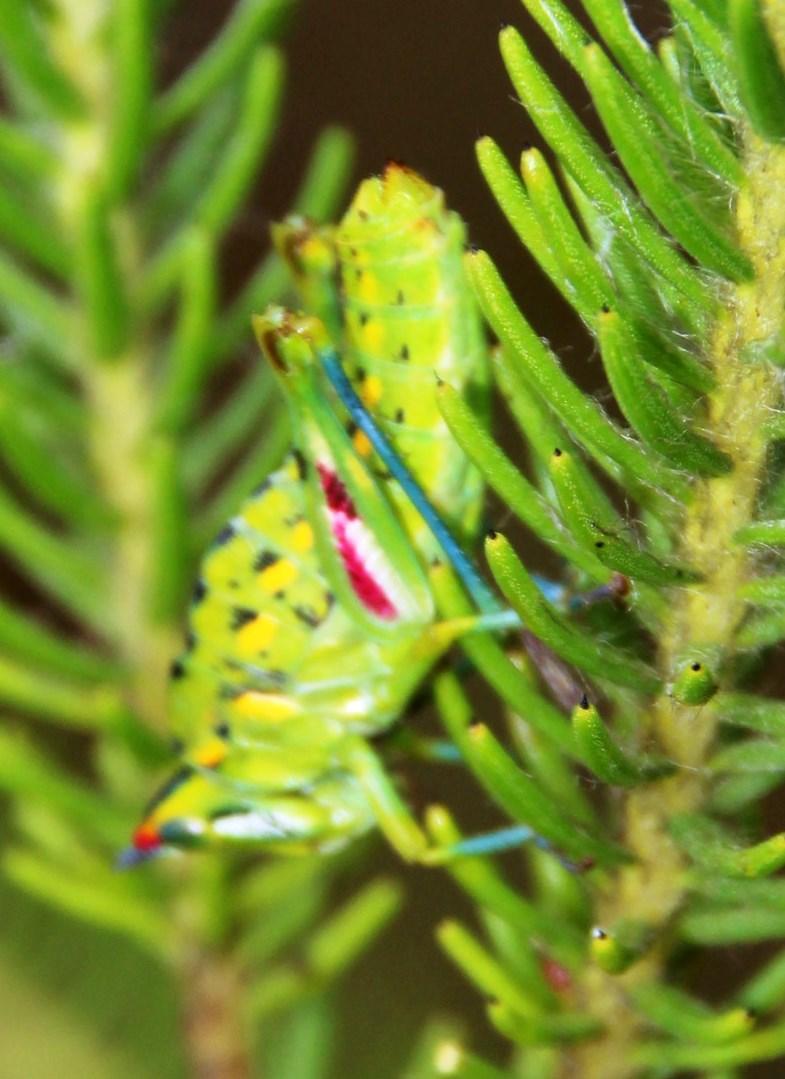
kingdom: Animalia
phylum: Arthropoda
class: Insecta
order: Orthoptera
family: Thericleidae
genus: Thericlesiella
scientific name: Thericlesiella meridionalis
